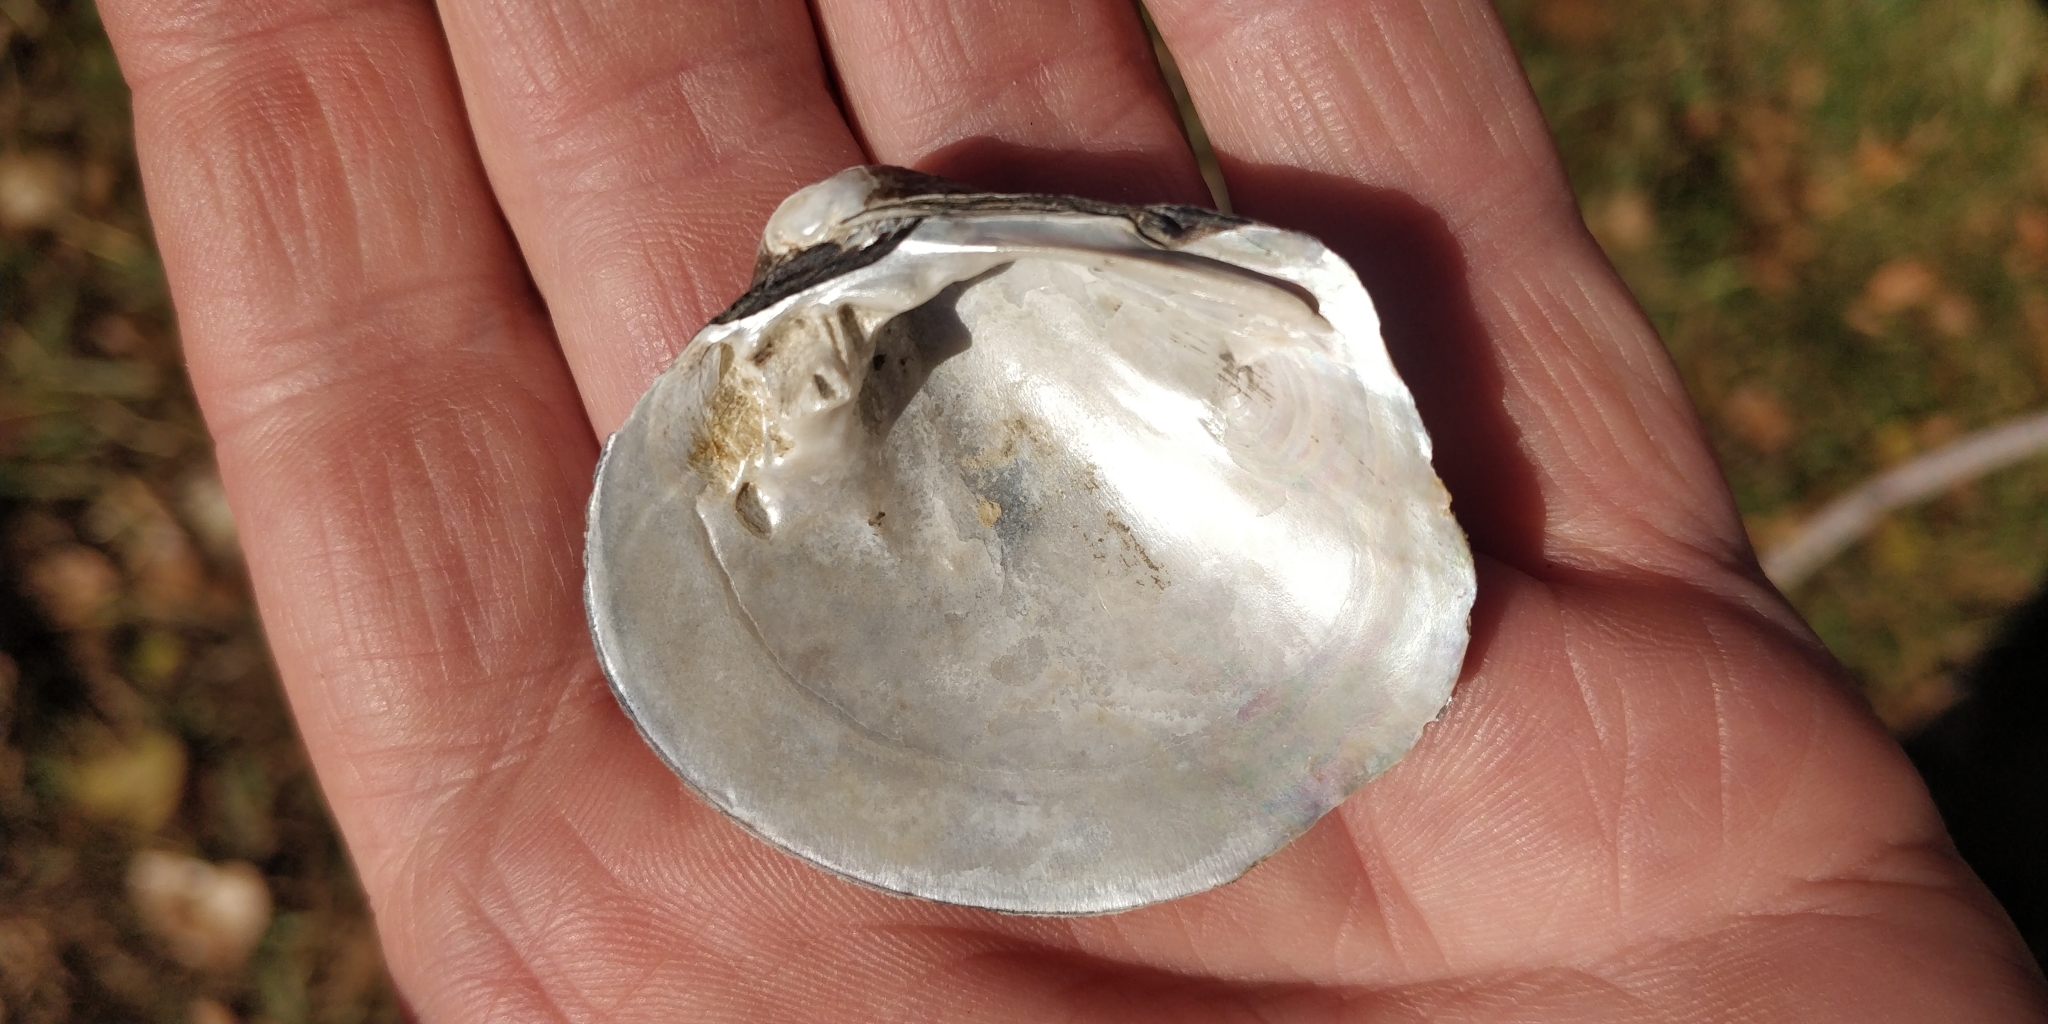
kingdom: Animalia
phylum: Mollusca
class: Bivalvia
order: Unionida
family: Unionidae
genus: Cyclonaias
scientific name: Cyclonaias pustulosa
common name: Pimpleback
